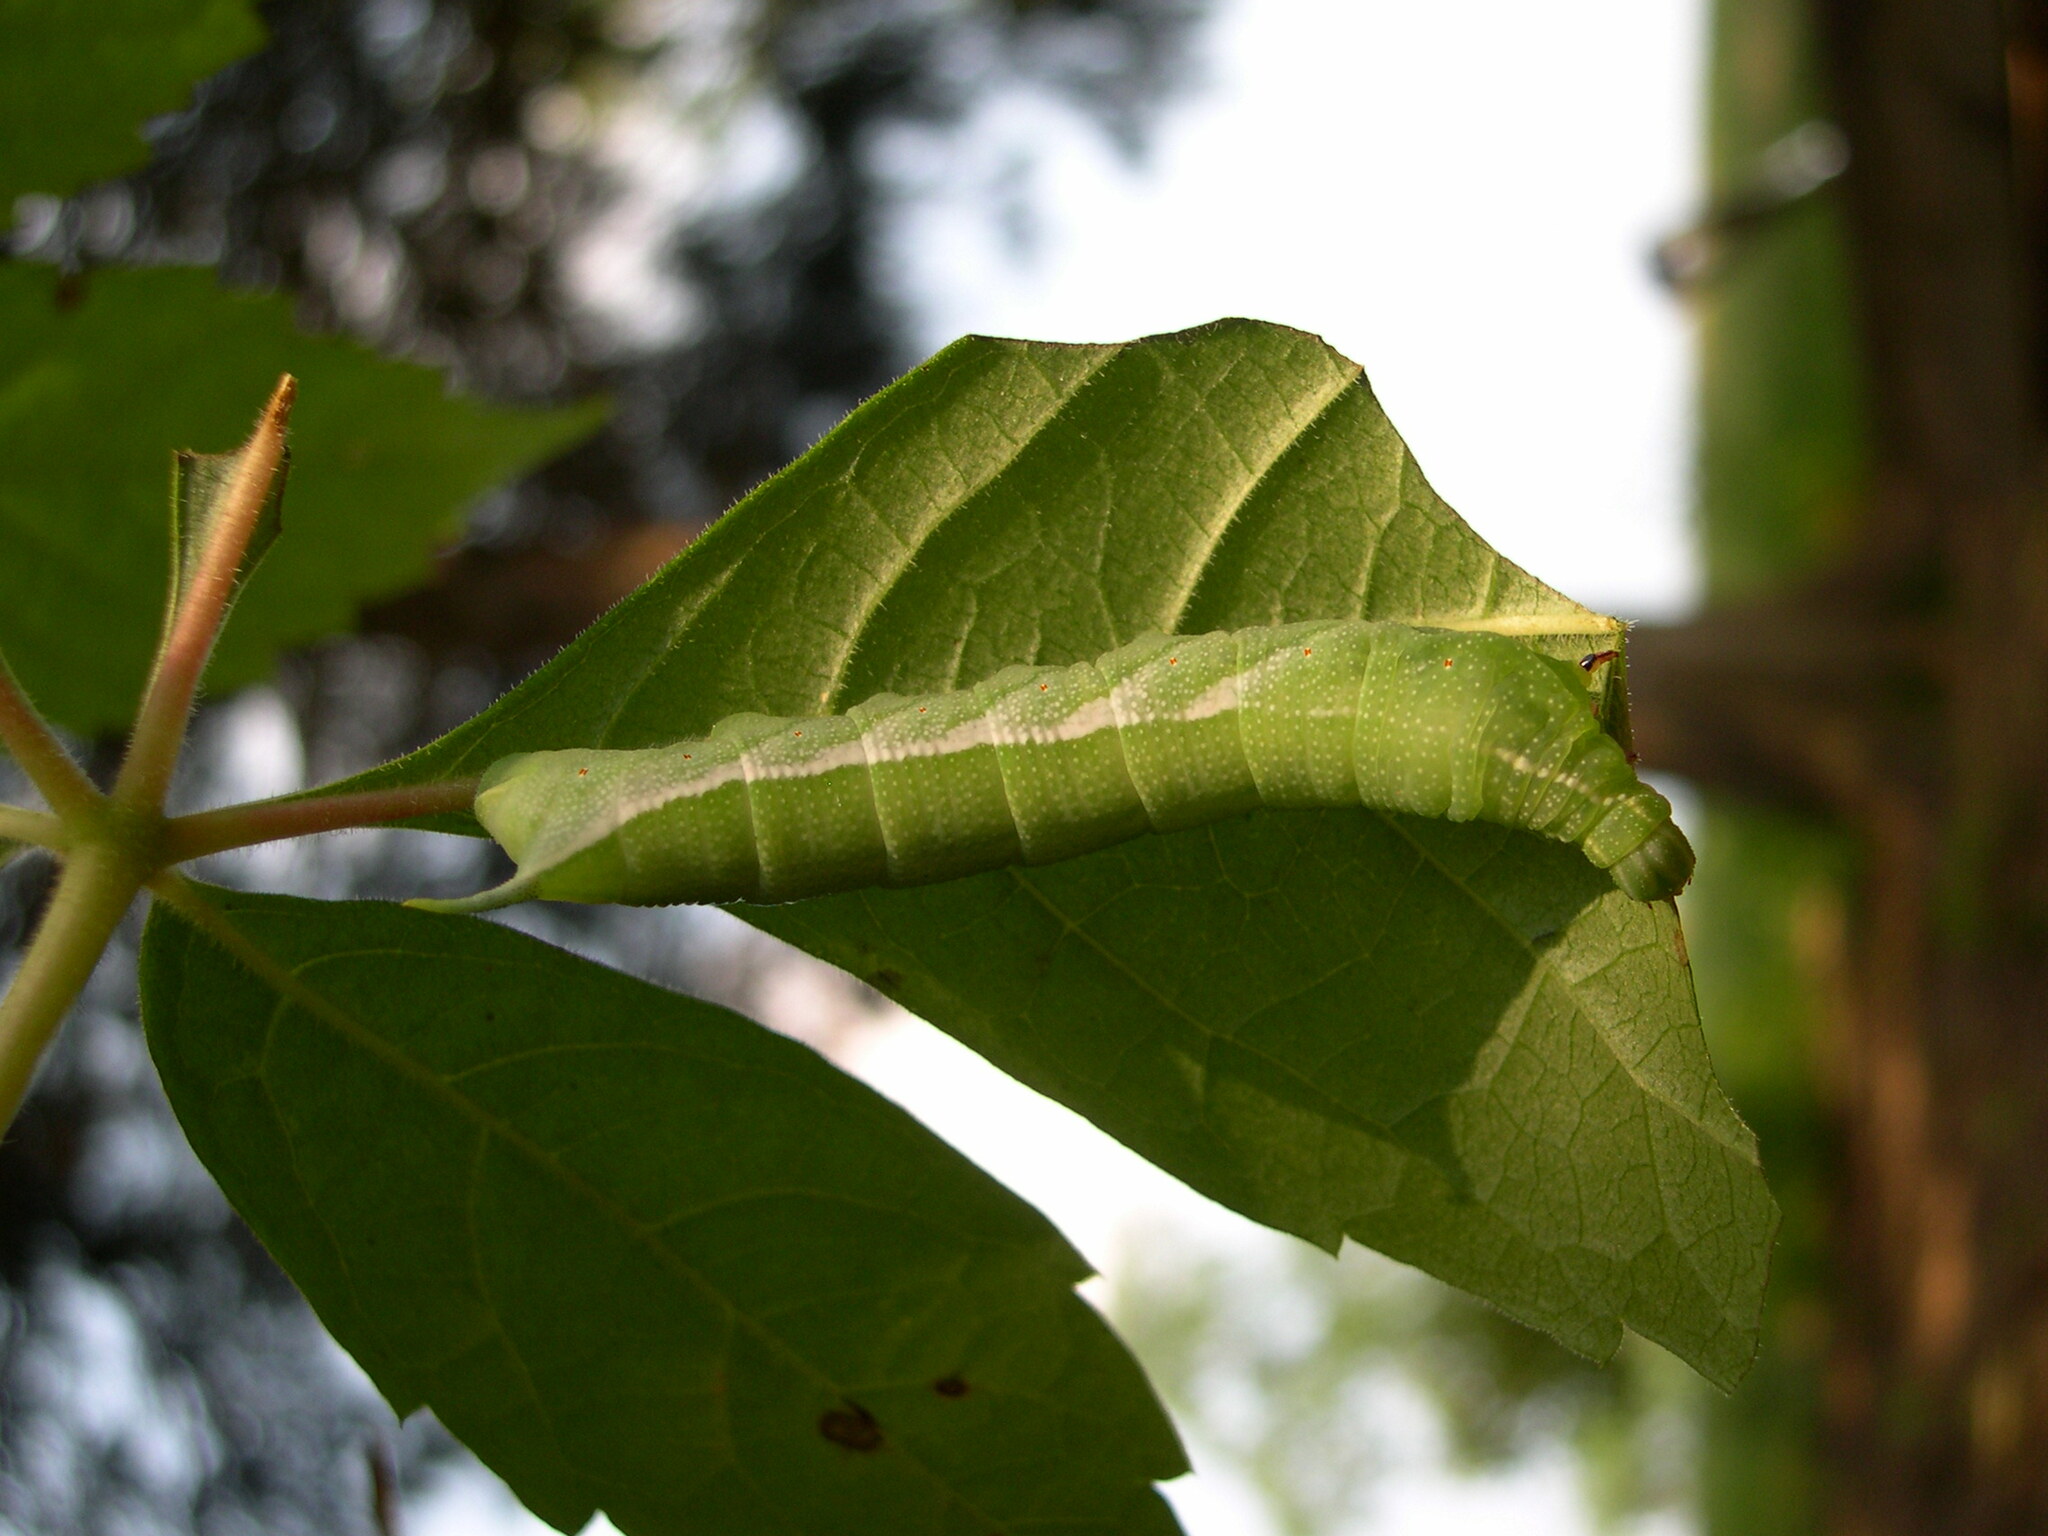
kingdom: Animalia
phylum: Arthropoda
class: Insecta
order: Lepidoptera
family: Sphingidae
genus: Darapsa
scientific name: Darapsa myron
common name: Hog sphinx
